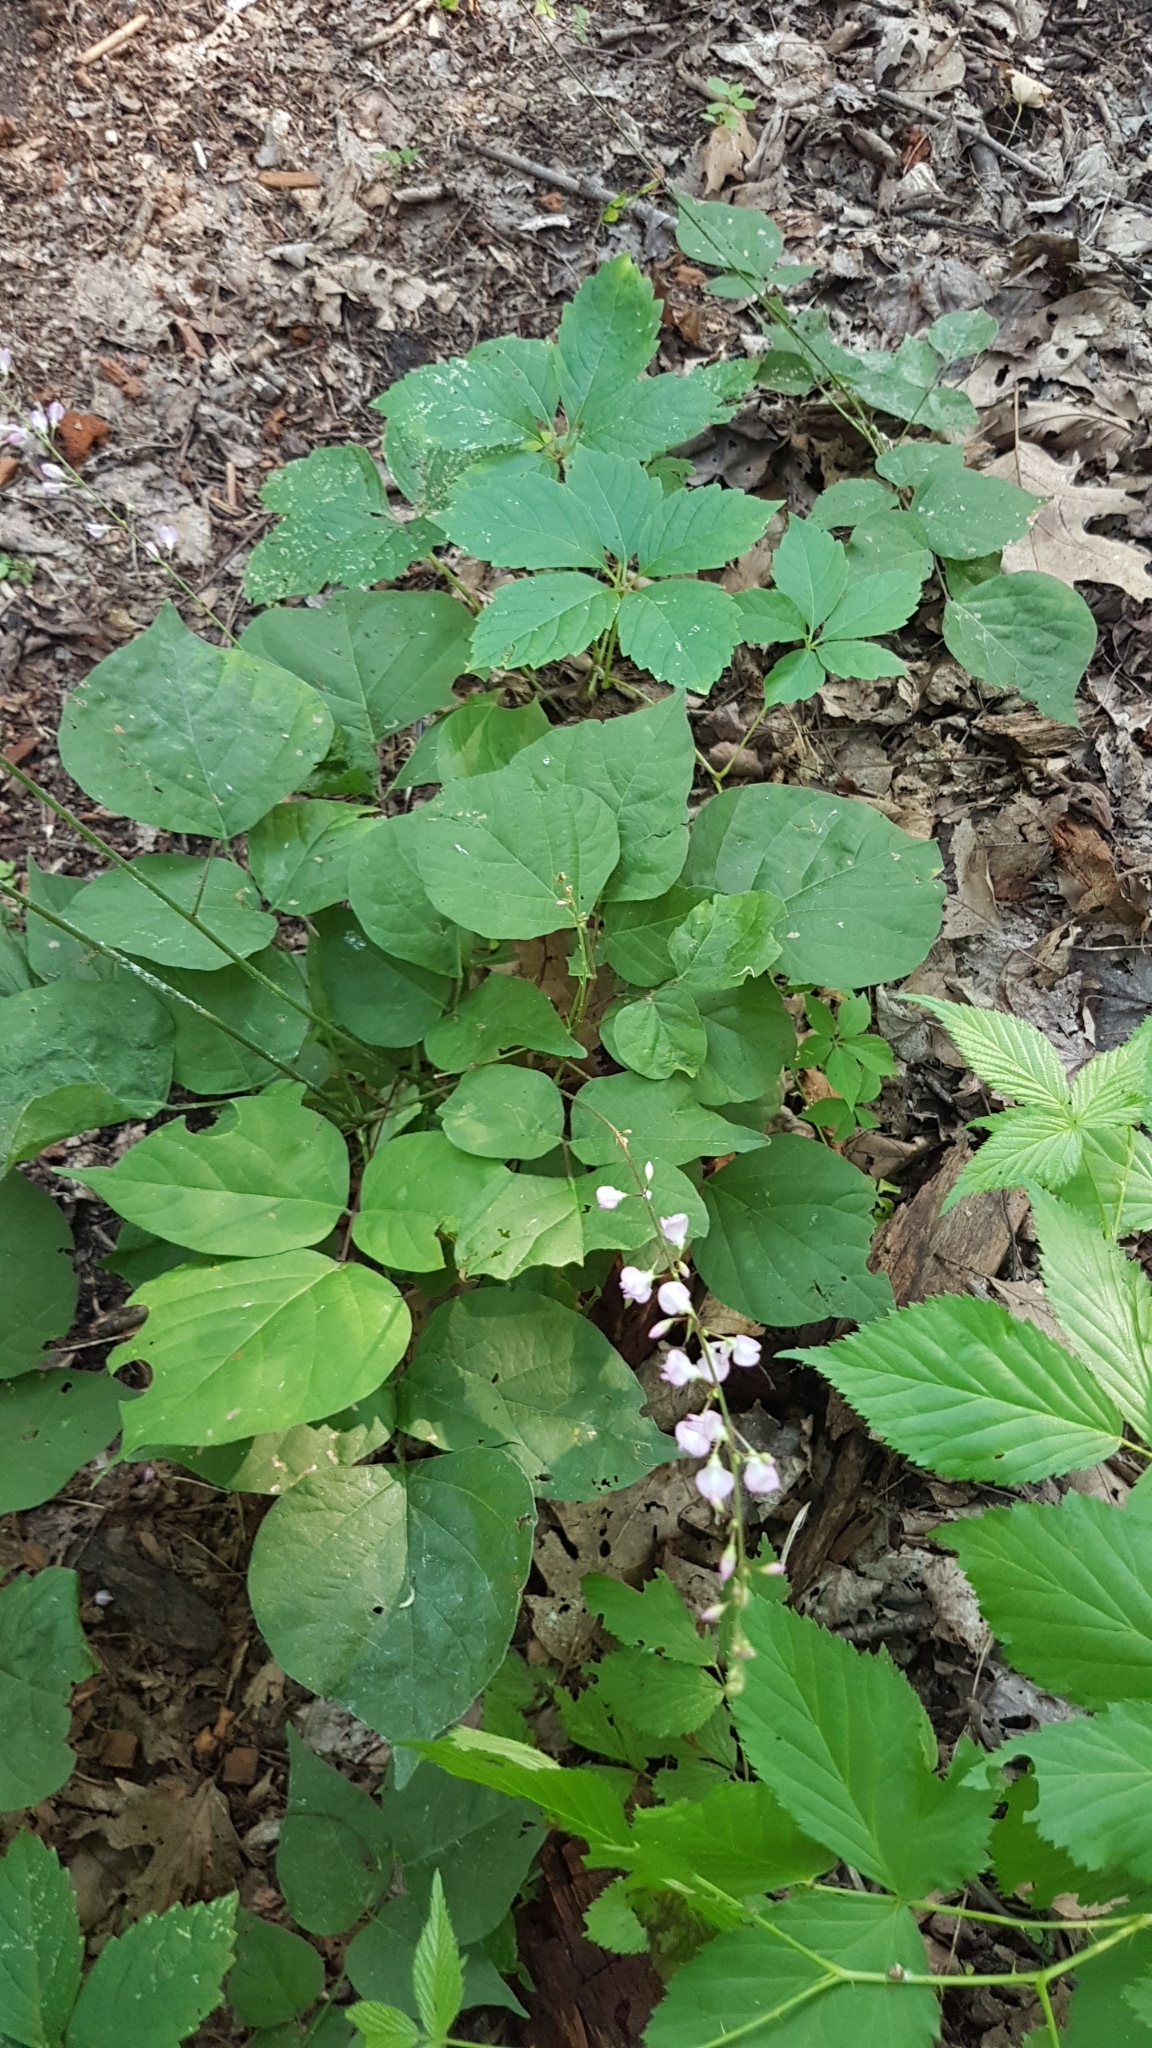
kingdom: Plantae
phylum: Tracheophyta
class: Magnoliopsida
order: Fabales
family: Fabaceae
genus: Hylodesmum
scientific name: Hylodesmum glutinosum
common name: Clustered-leaved tick-trefoil
